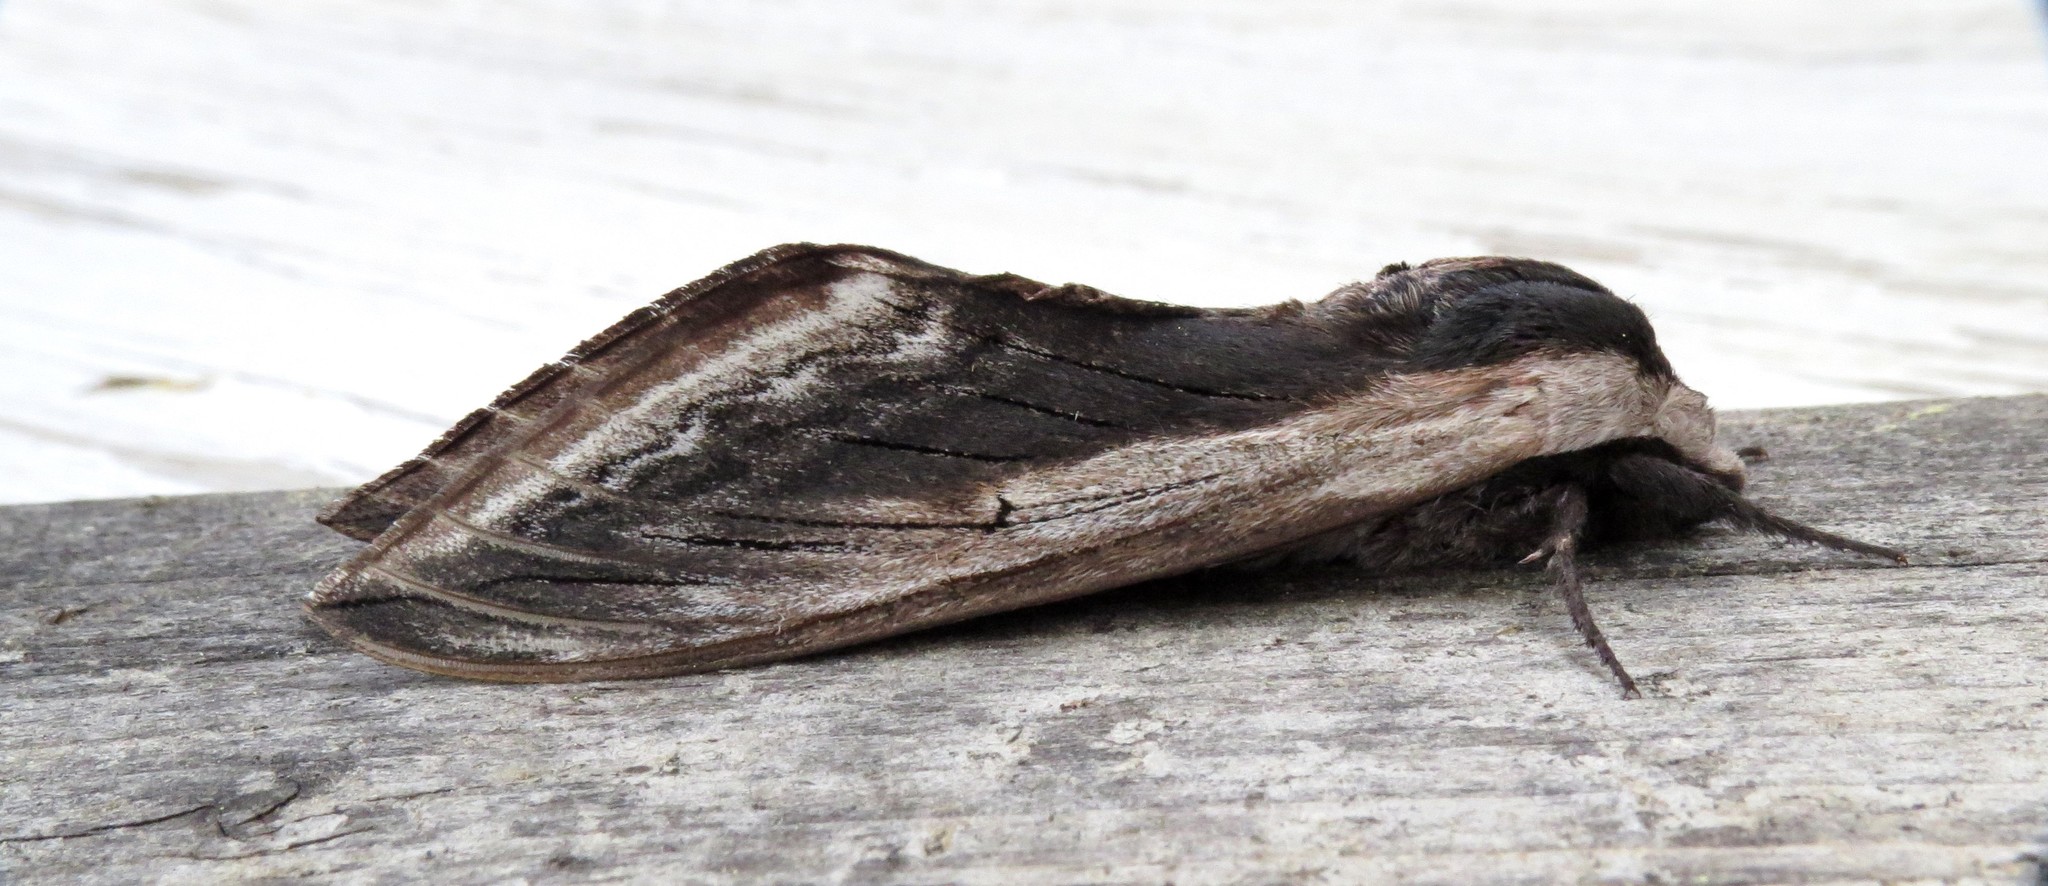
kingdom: Animalia
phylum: Arthropoda
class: Insecta
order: Lepidoptera
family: Sphingidae
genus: Sphinx
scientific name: Sphinx drupiferarum
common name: Wild cherry sphinx
